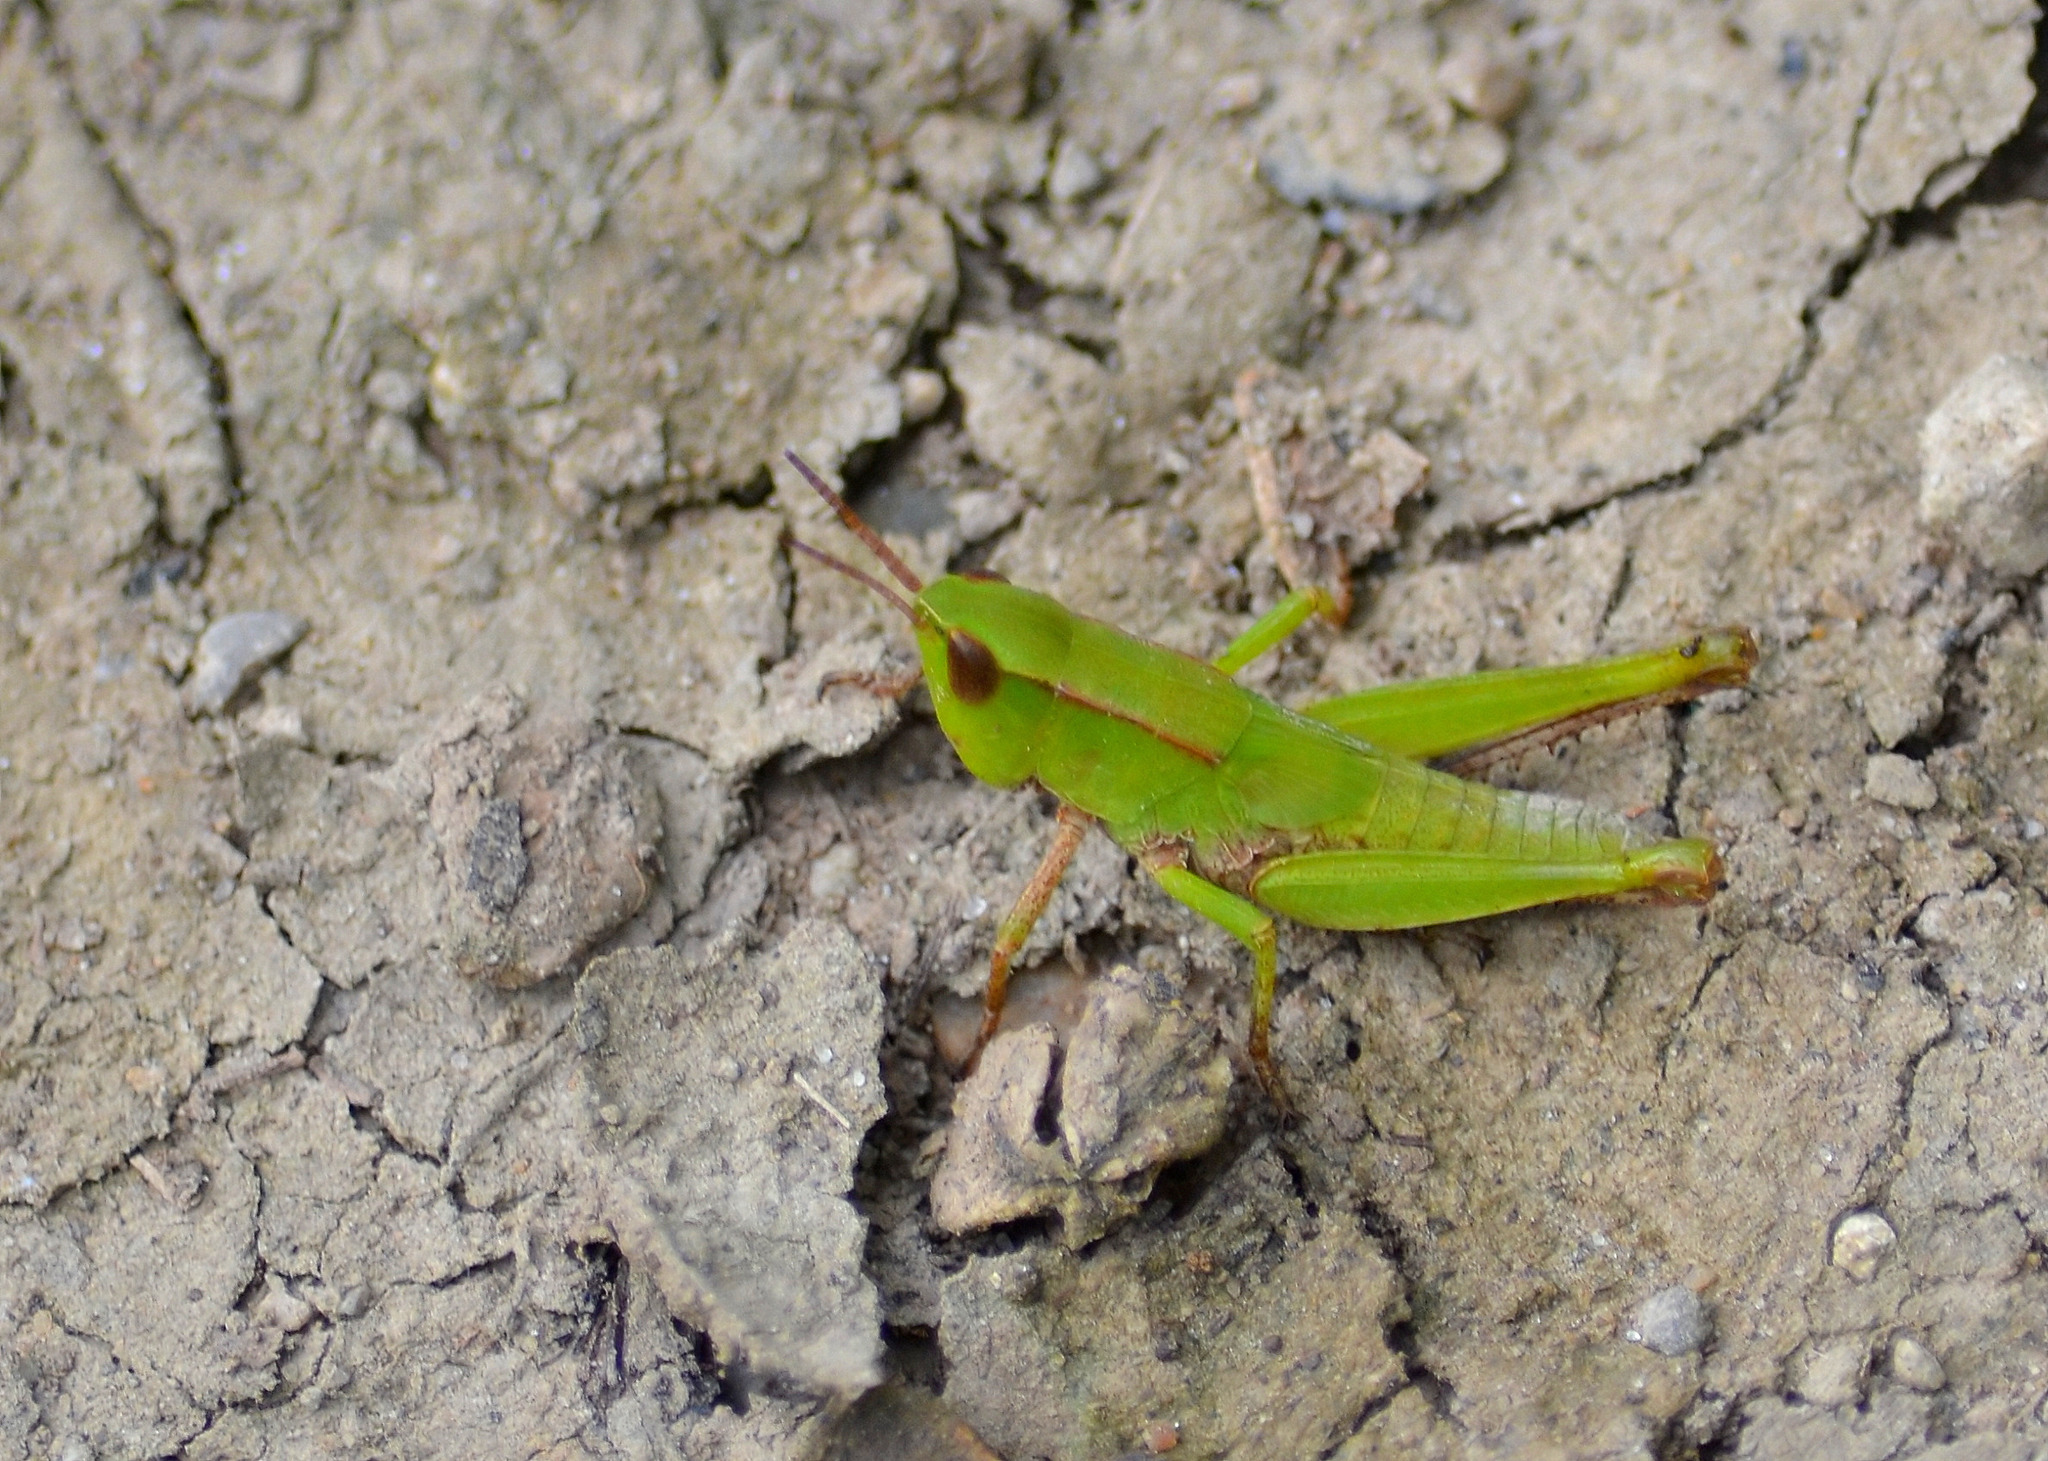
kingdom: Animalia
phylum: Arthropoda
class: Insecta
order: Orthoptera
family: Acrididae
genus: Dichromorpha
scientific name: Dichromorpha viridis
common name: Short-winged green grasshopper
